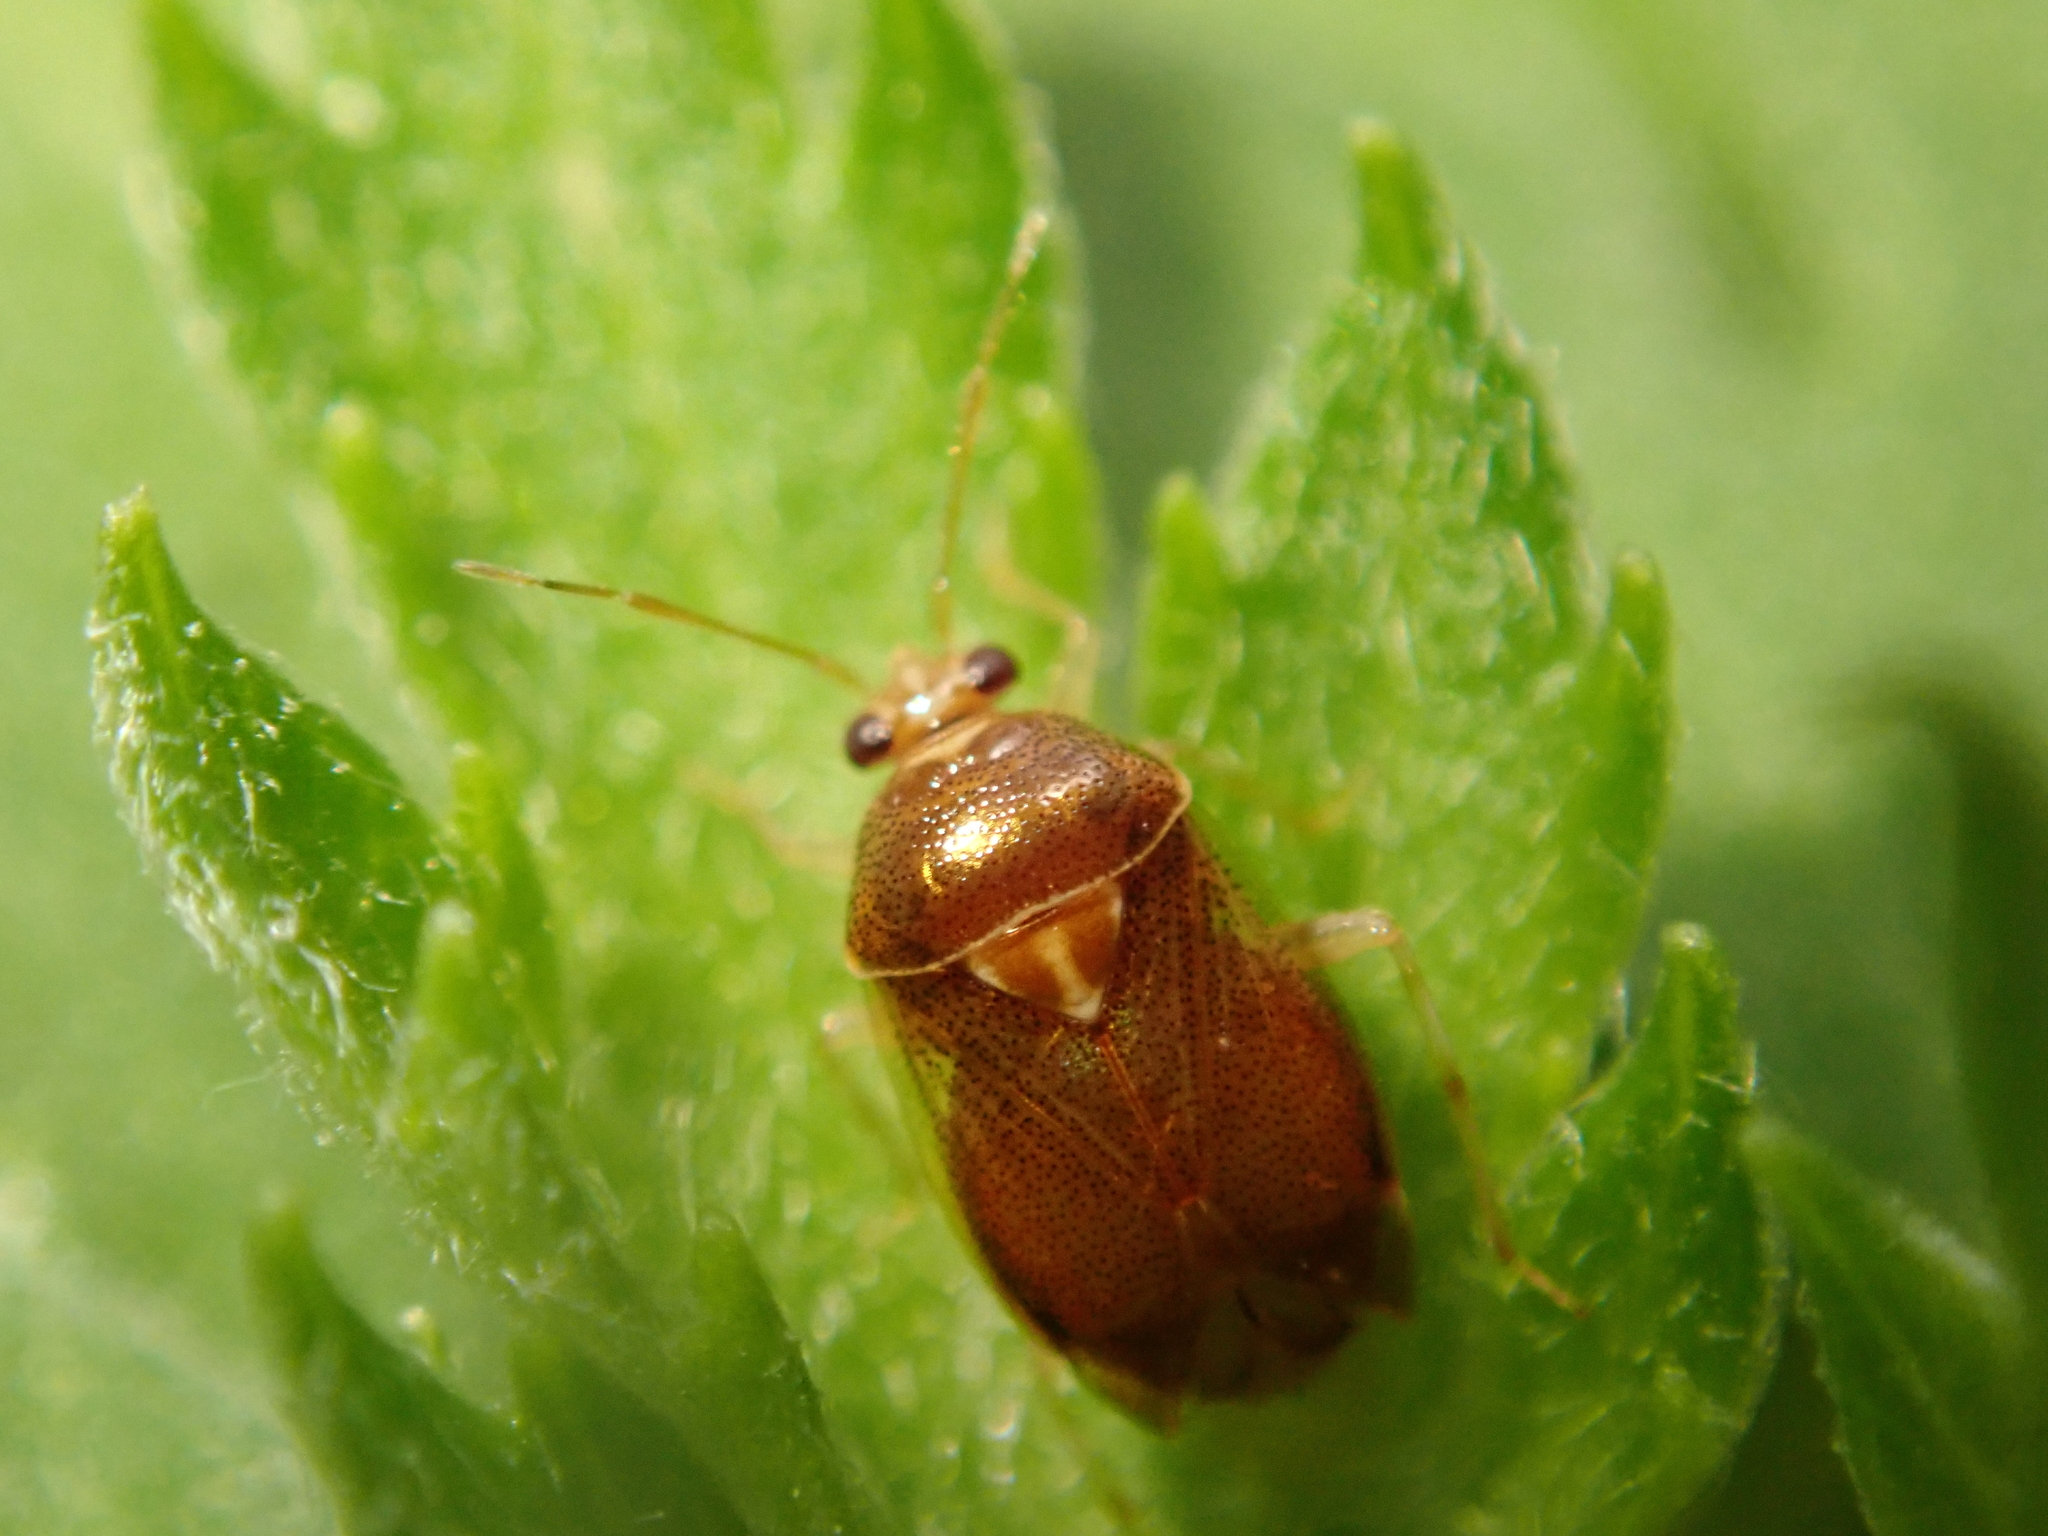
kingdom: Animalia
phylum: Arthropoda
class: Insecta
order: Hemiptera
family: Miridae
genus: Deraeocoris
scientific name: Deraeocoris lutescens
